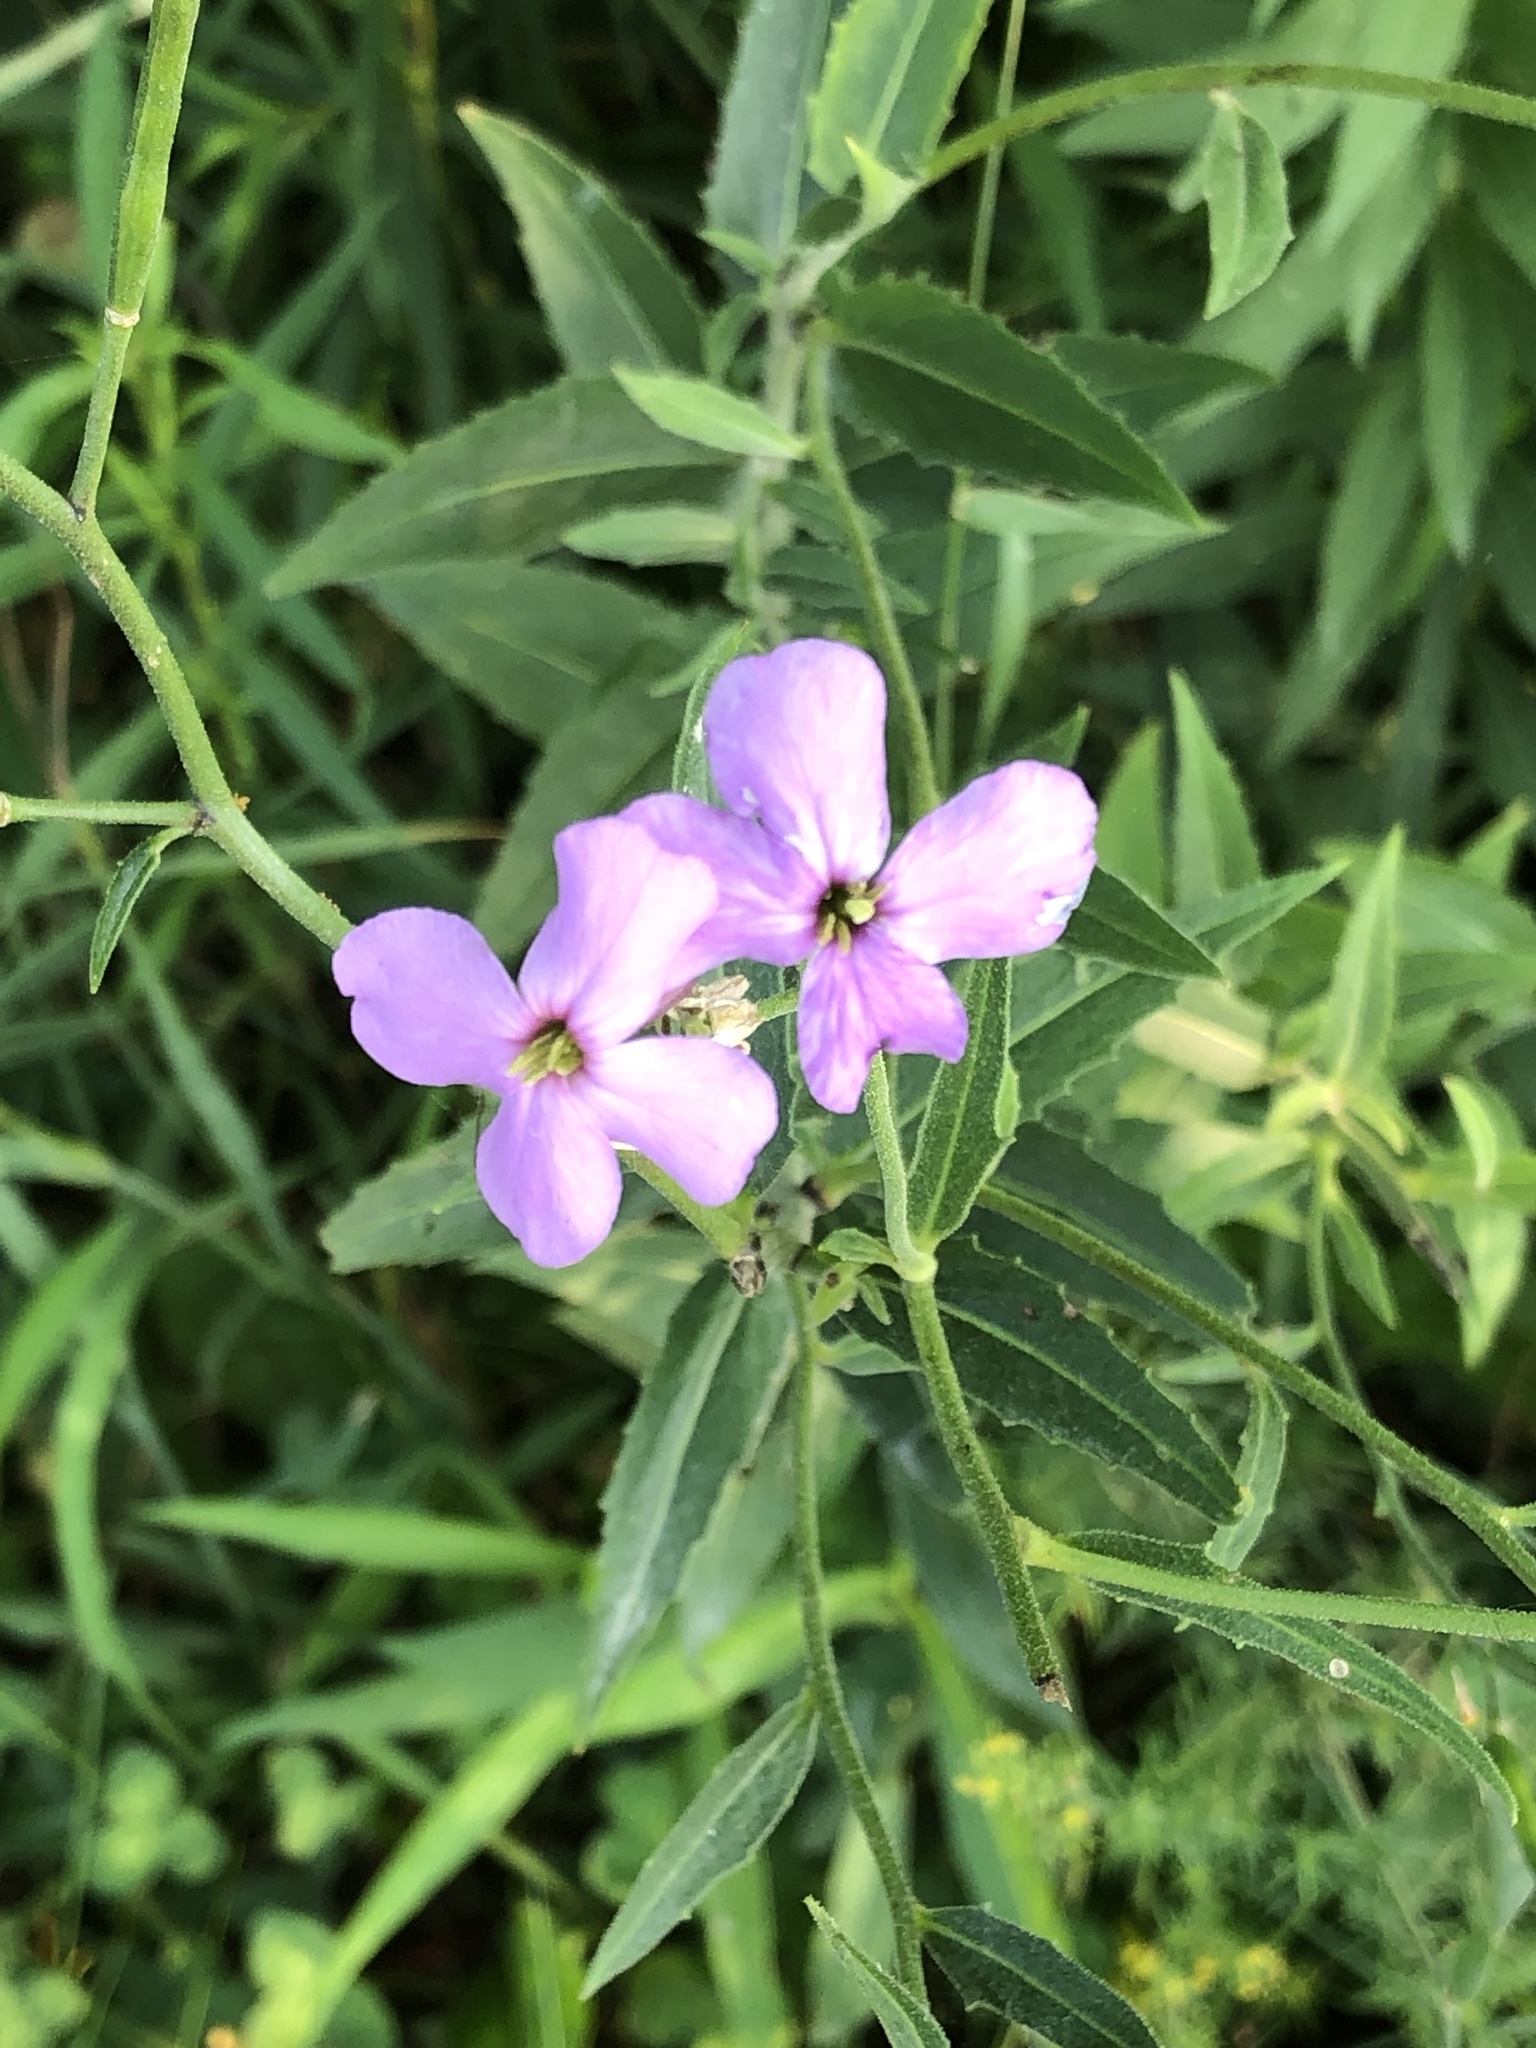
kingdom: Plantae
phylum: Tracheophyta
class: Magnoliopsida
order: Brassicales
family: Brassicaceae
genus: Hesperis
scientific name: Hesperis matronalis
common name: Dame's-violet
